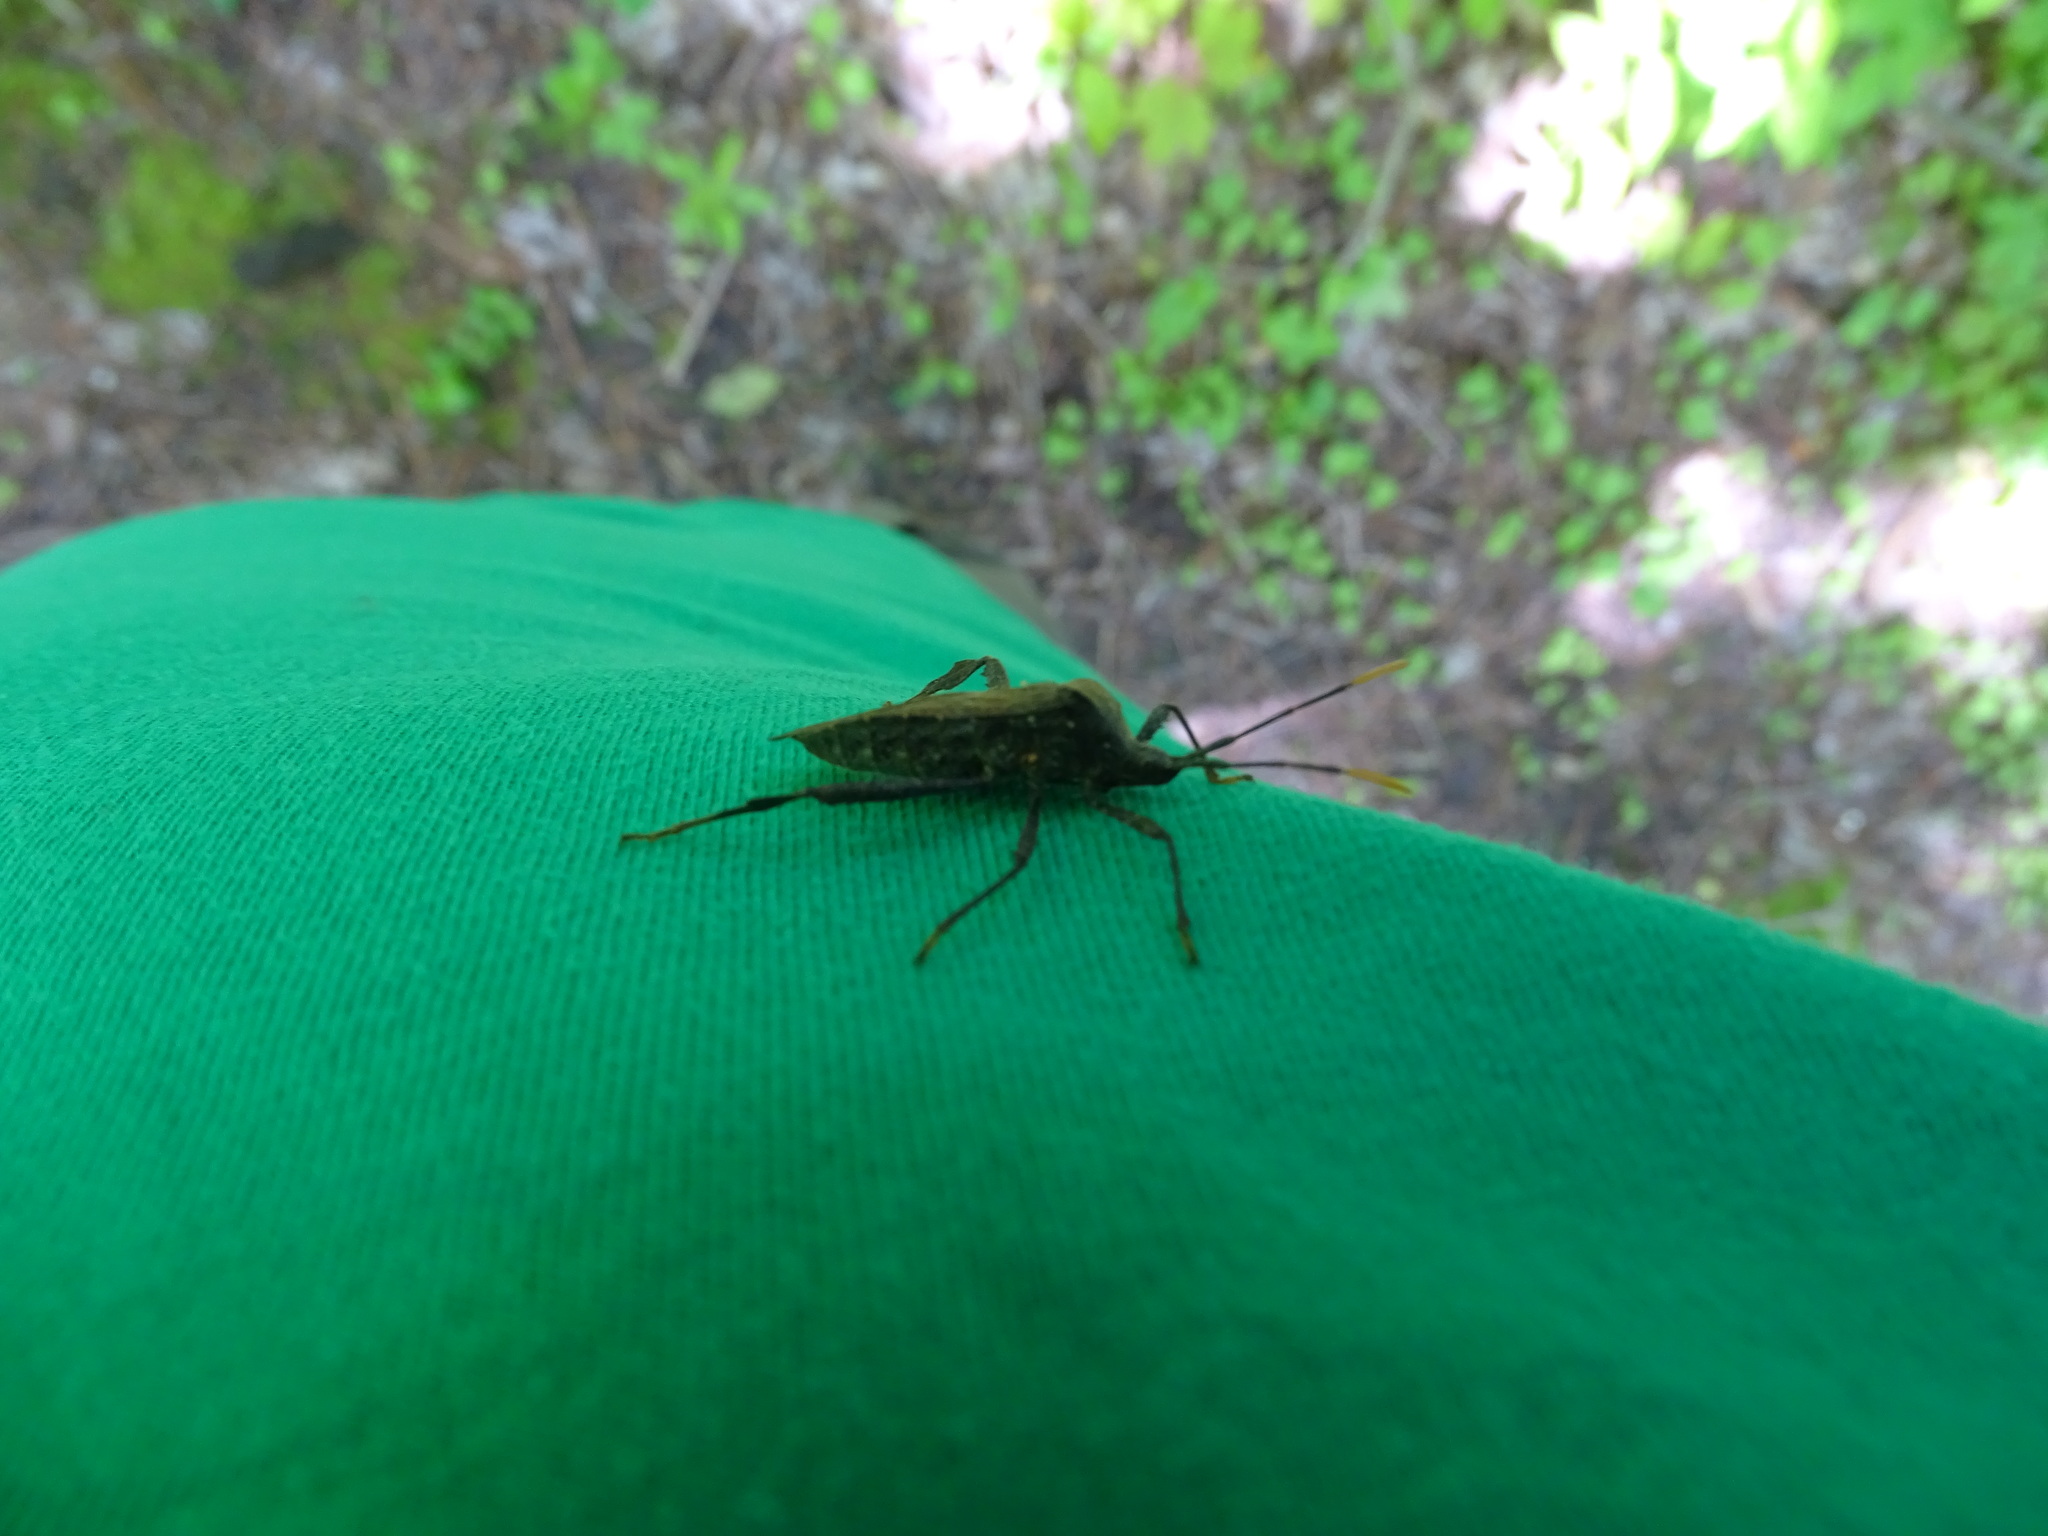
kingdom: Animalia
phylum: Arthropoda
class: Insecta
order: Hemiptera
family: Coreidae
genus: Acanthocephala
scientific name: Acanthocephala terminalis
